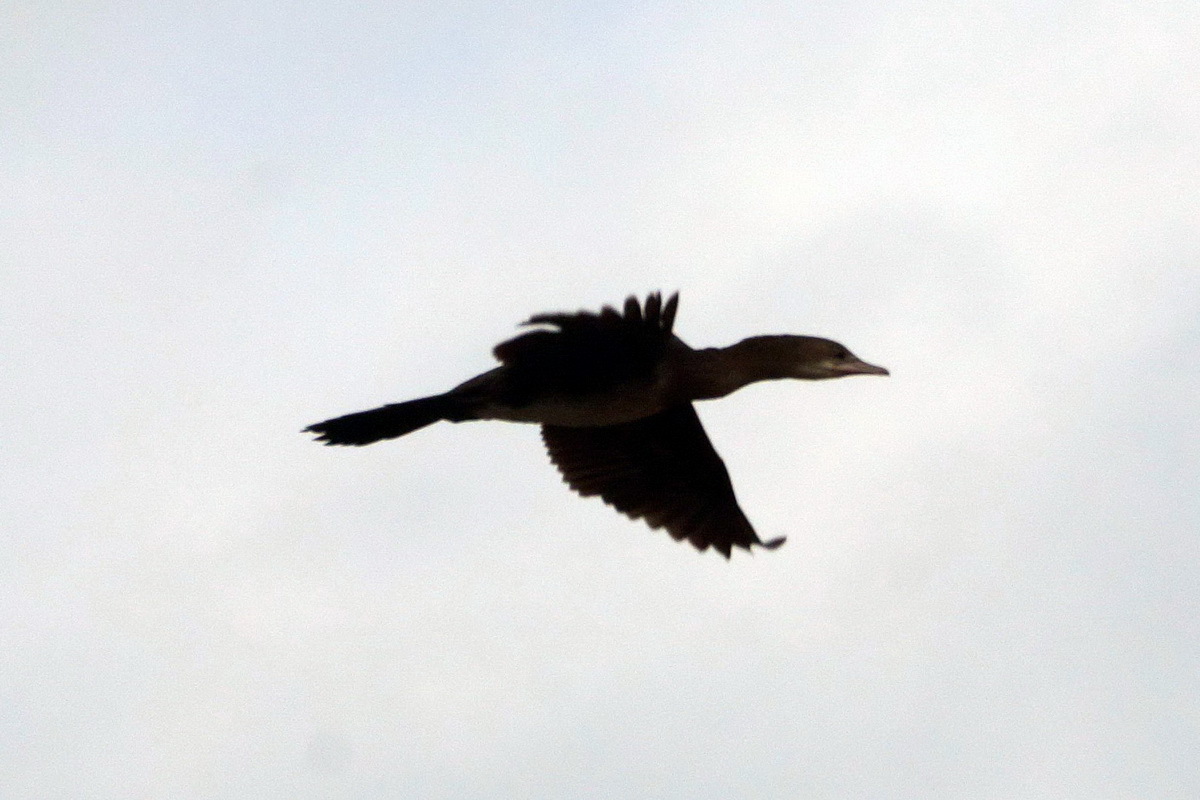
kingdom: Animalia
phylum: Chordata
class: Aves
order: Suliformes
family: Phalacrocoracidae
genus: Microcarbo
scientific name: Microcarbo pygmaeus
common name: Pygmy cormorant
